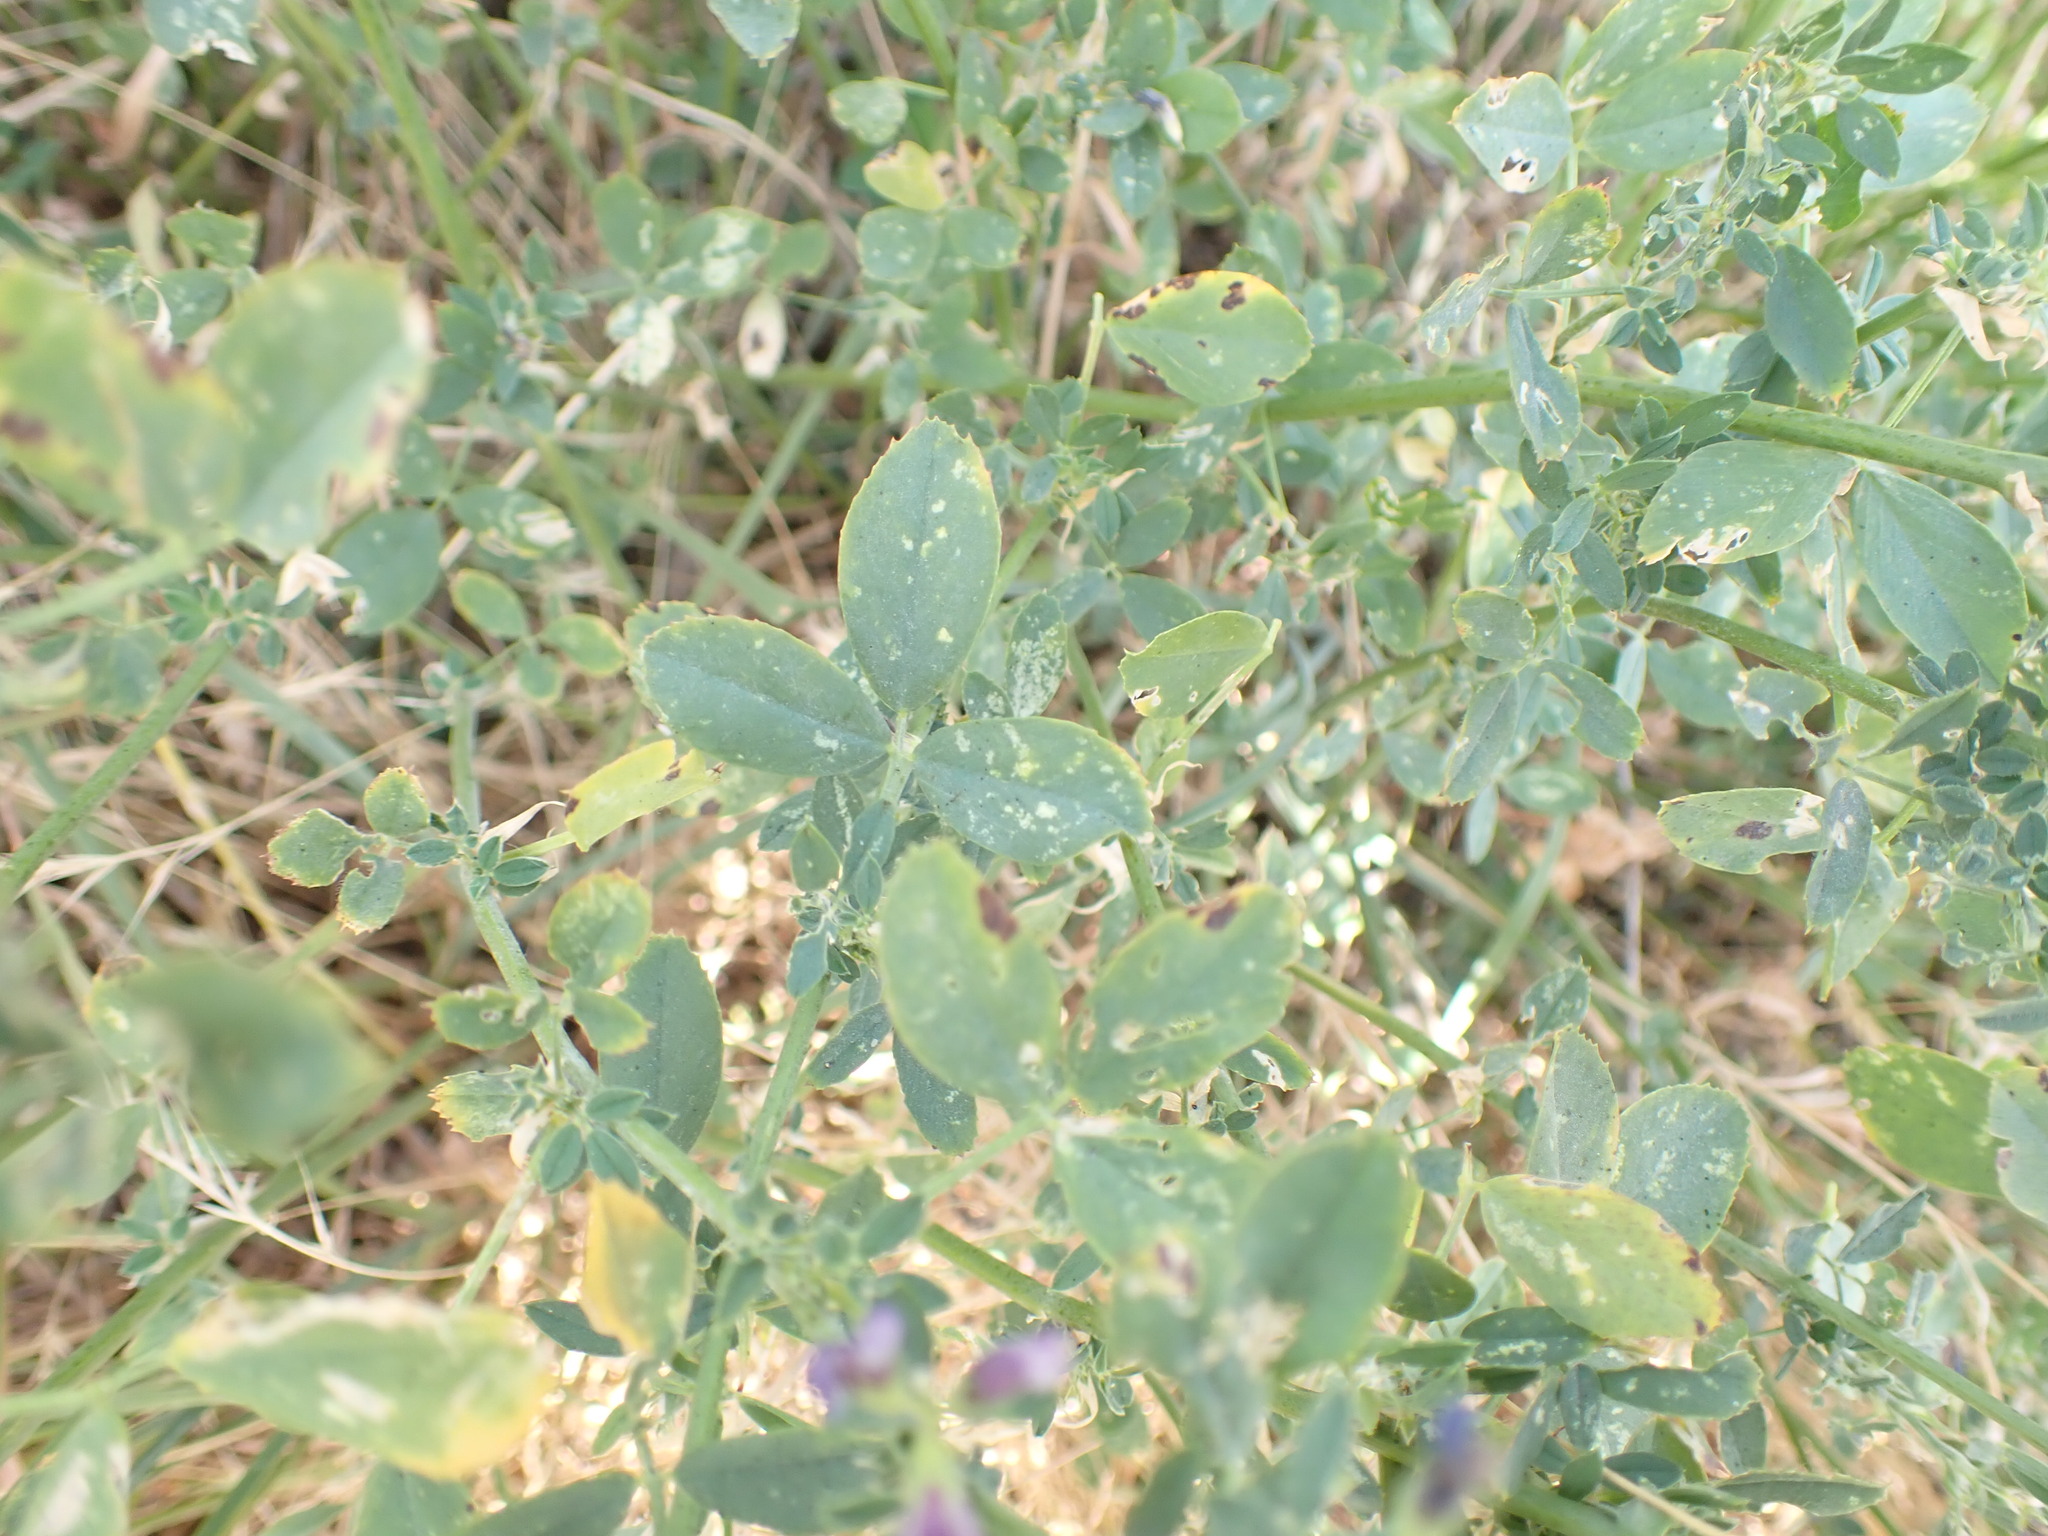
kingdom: Plantae
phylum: Tracheophyta
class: Magnoliopsida
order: Fabales
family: Fabaceae
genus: Medicago
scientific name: Medicago sativa
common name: Alfalfa
